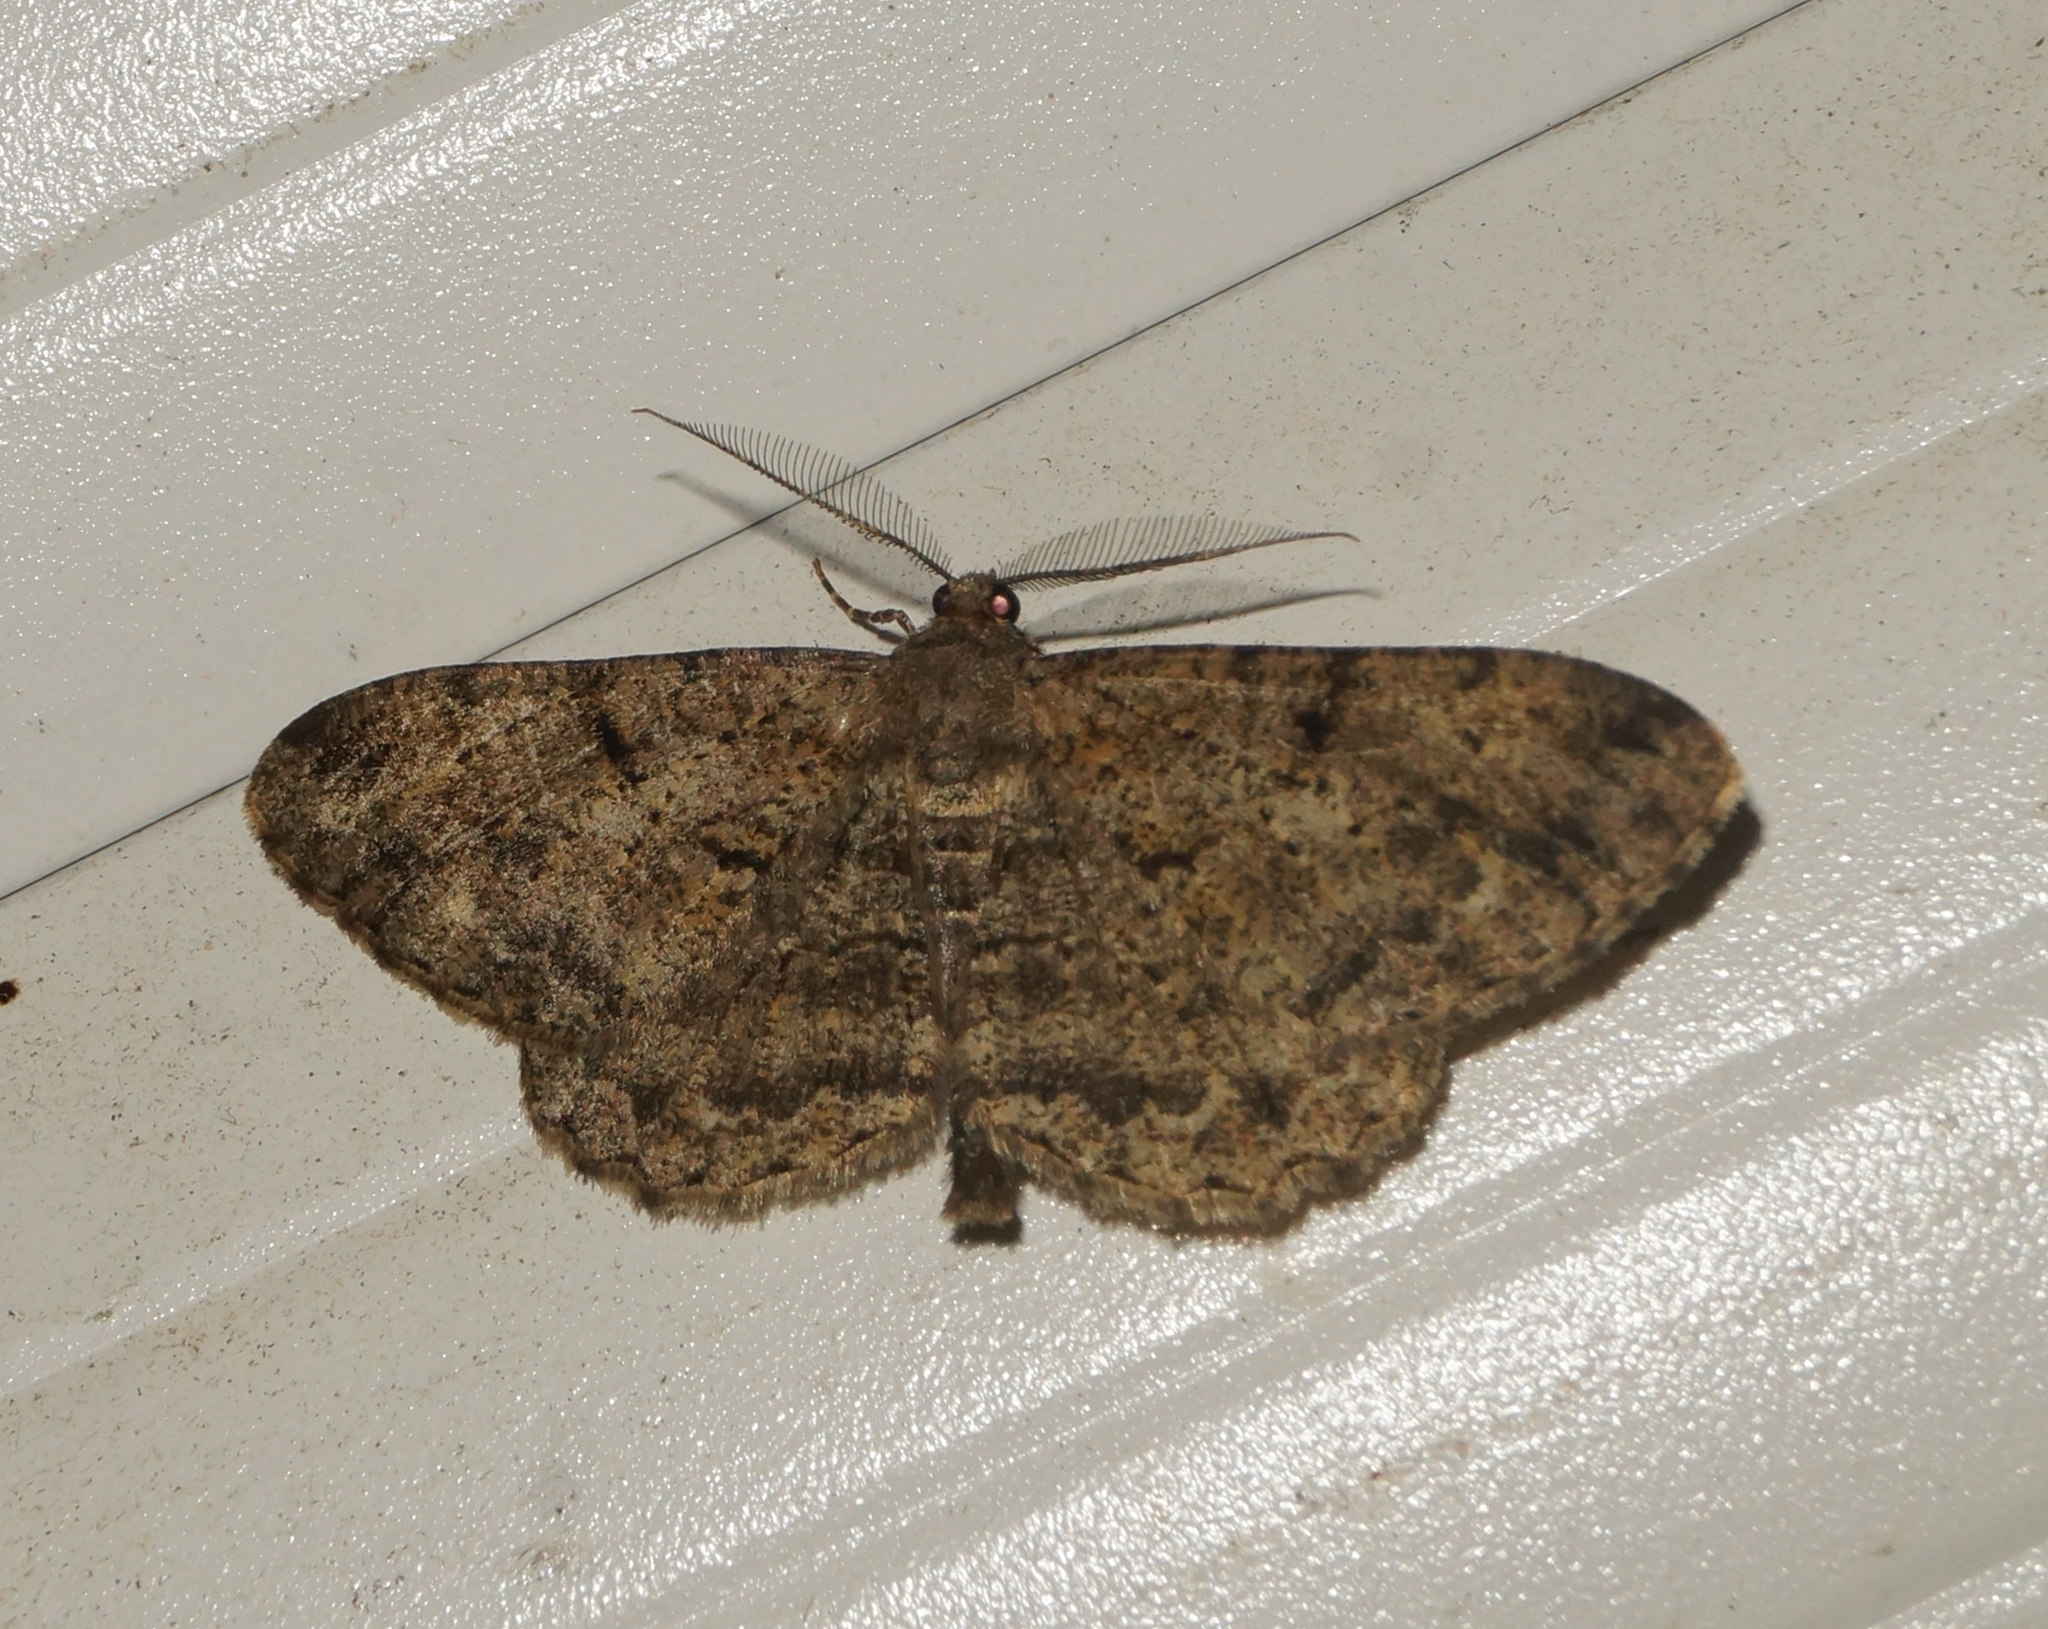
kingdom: Animalia
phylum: Arthropoda
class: Insecta
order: Lepidoptera
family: Geometridae
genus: Peribatodes
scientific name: Peribatodes rhomboidaria
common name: Willow beauty
